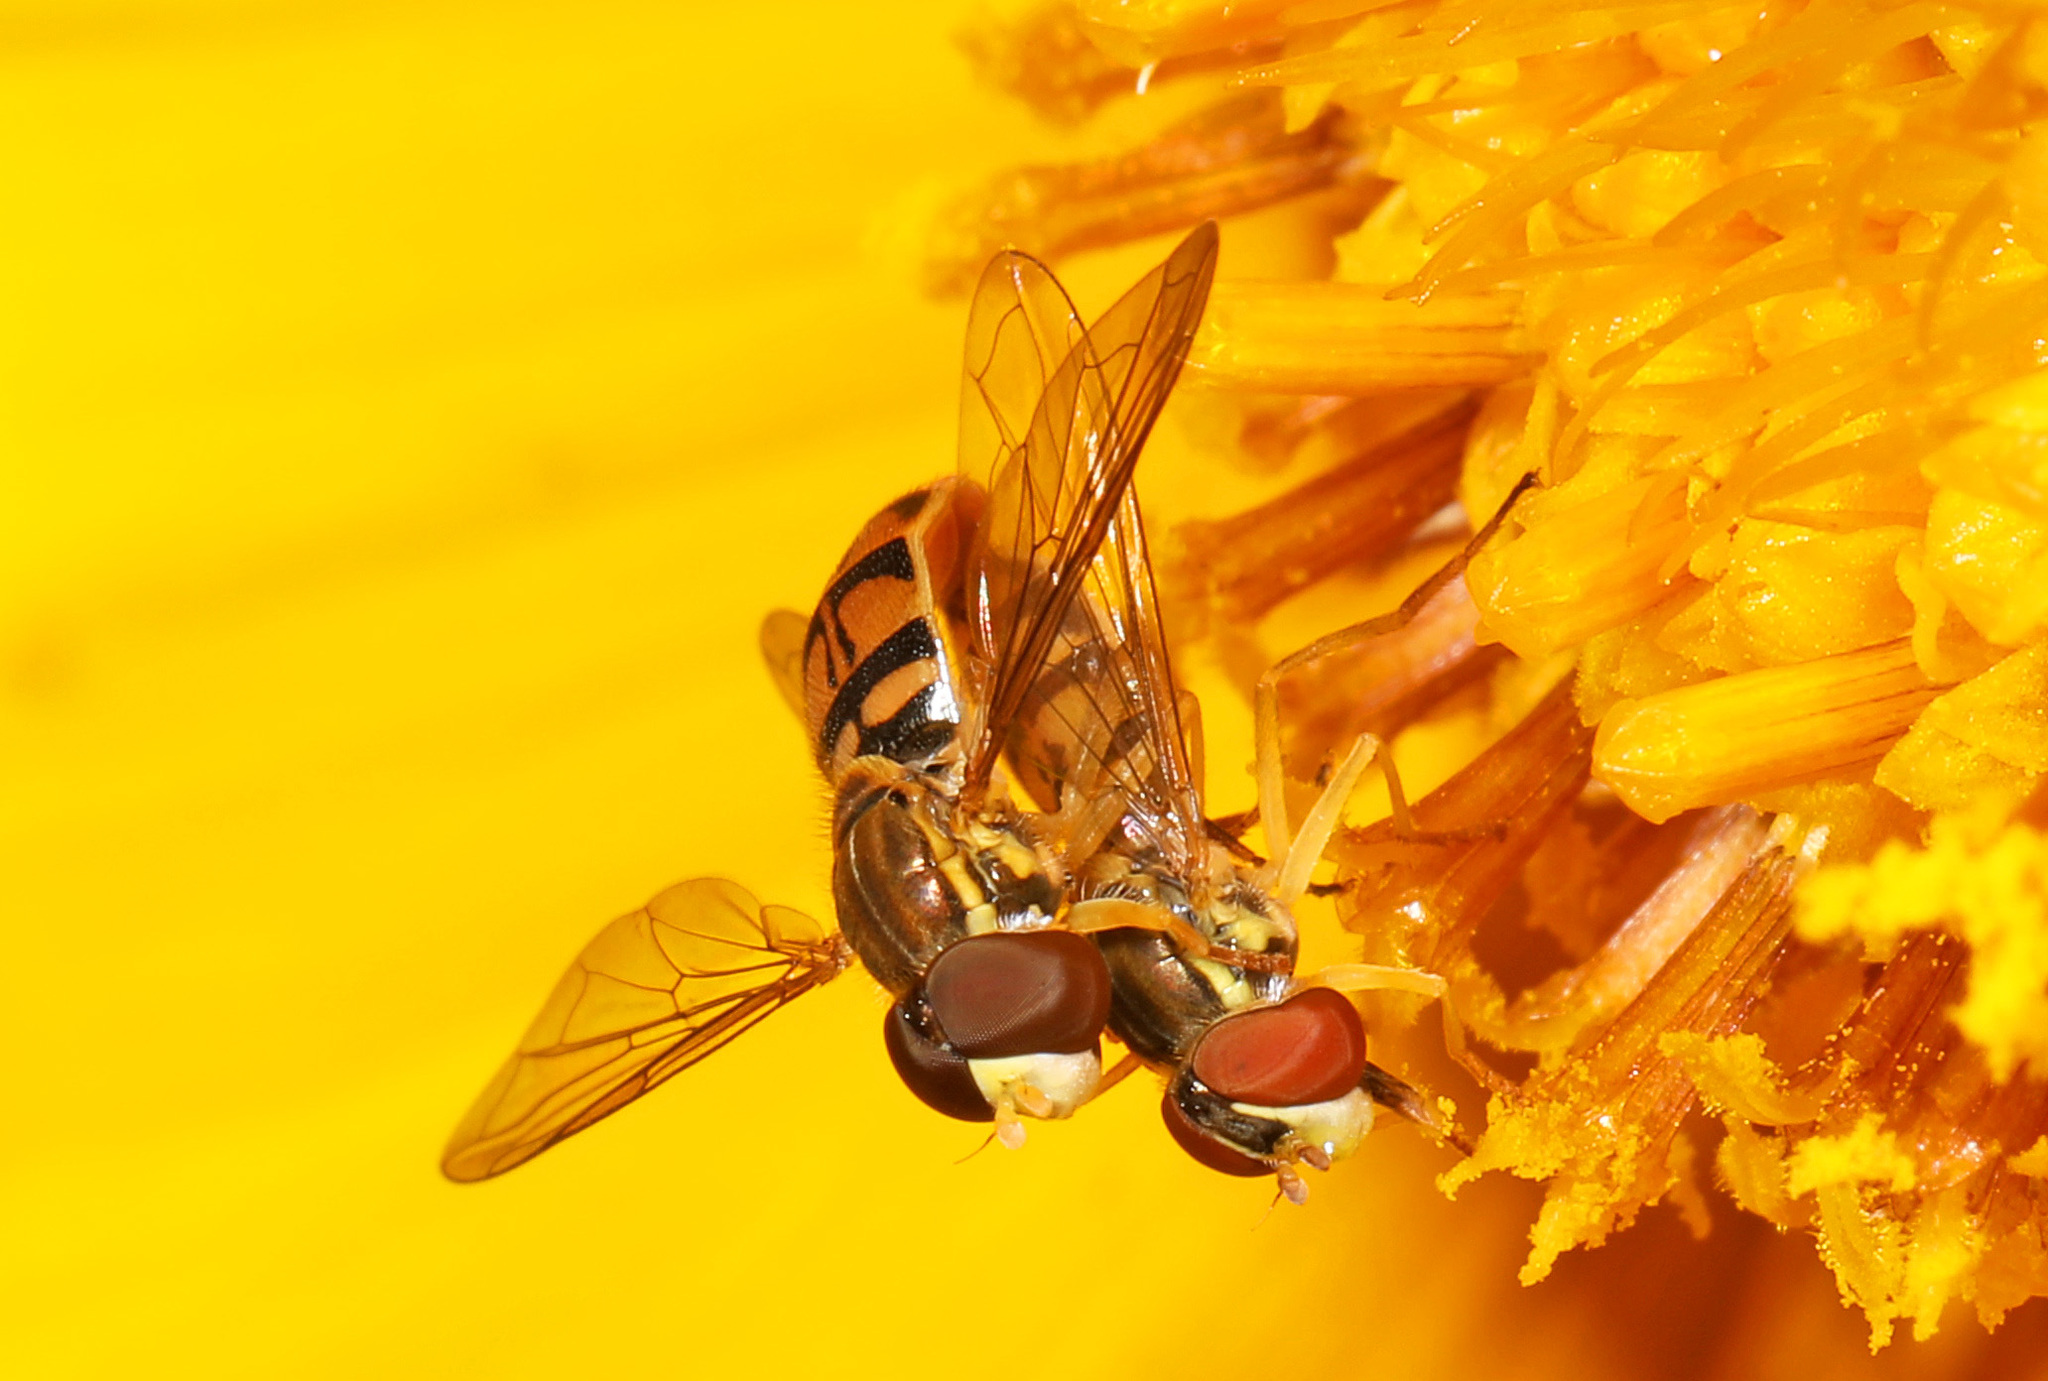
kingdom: Animalia
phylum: Arthropoda
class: Insecta
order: Diptera
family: Syrphidae
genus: Toxomerus
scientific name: Toxomerus marginatus
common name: Syrphid fly
